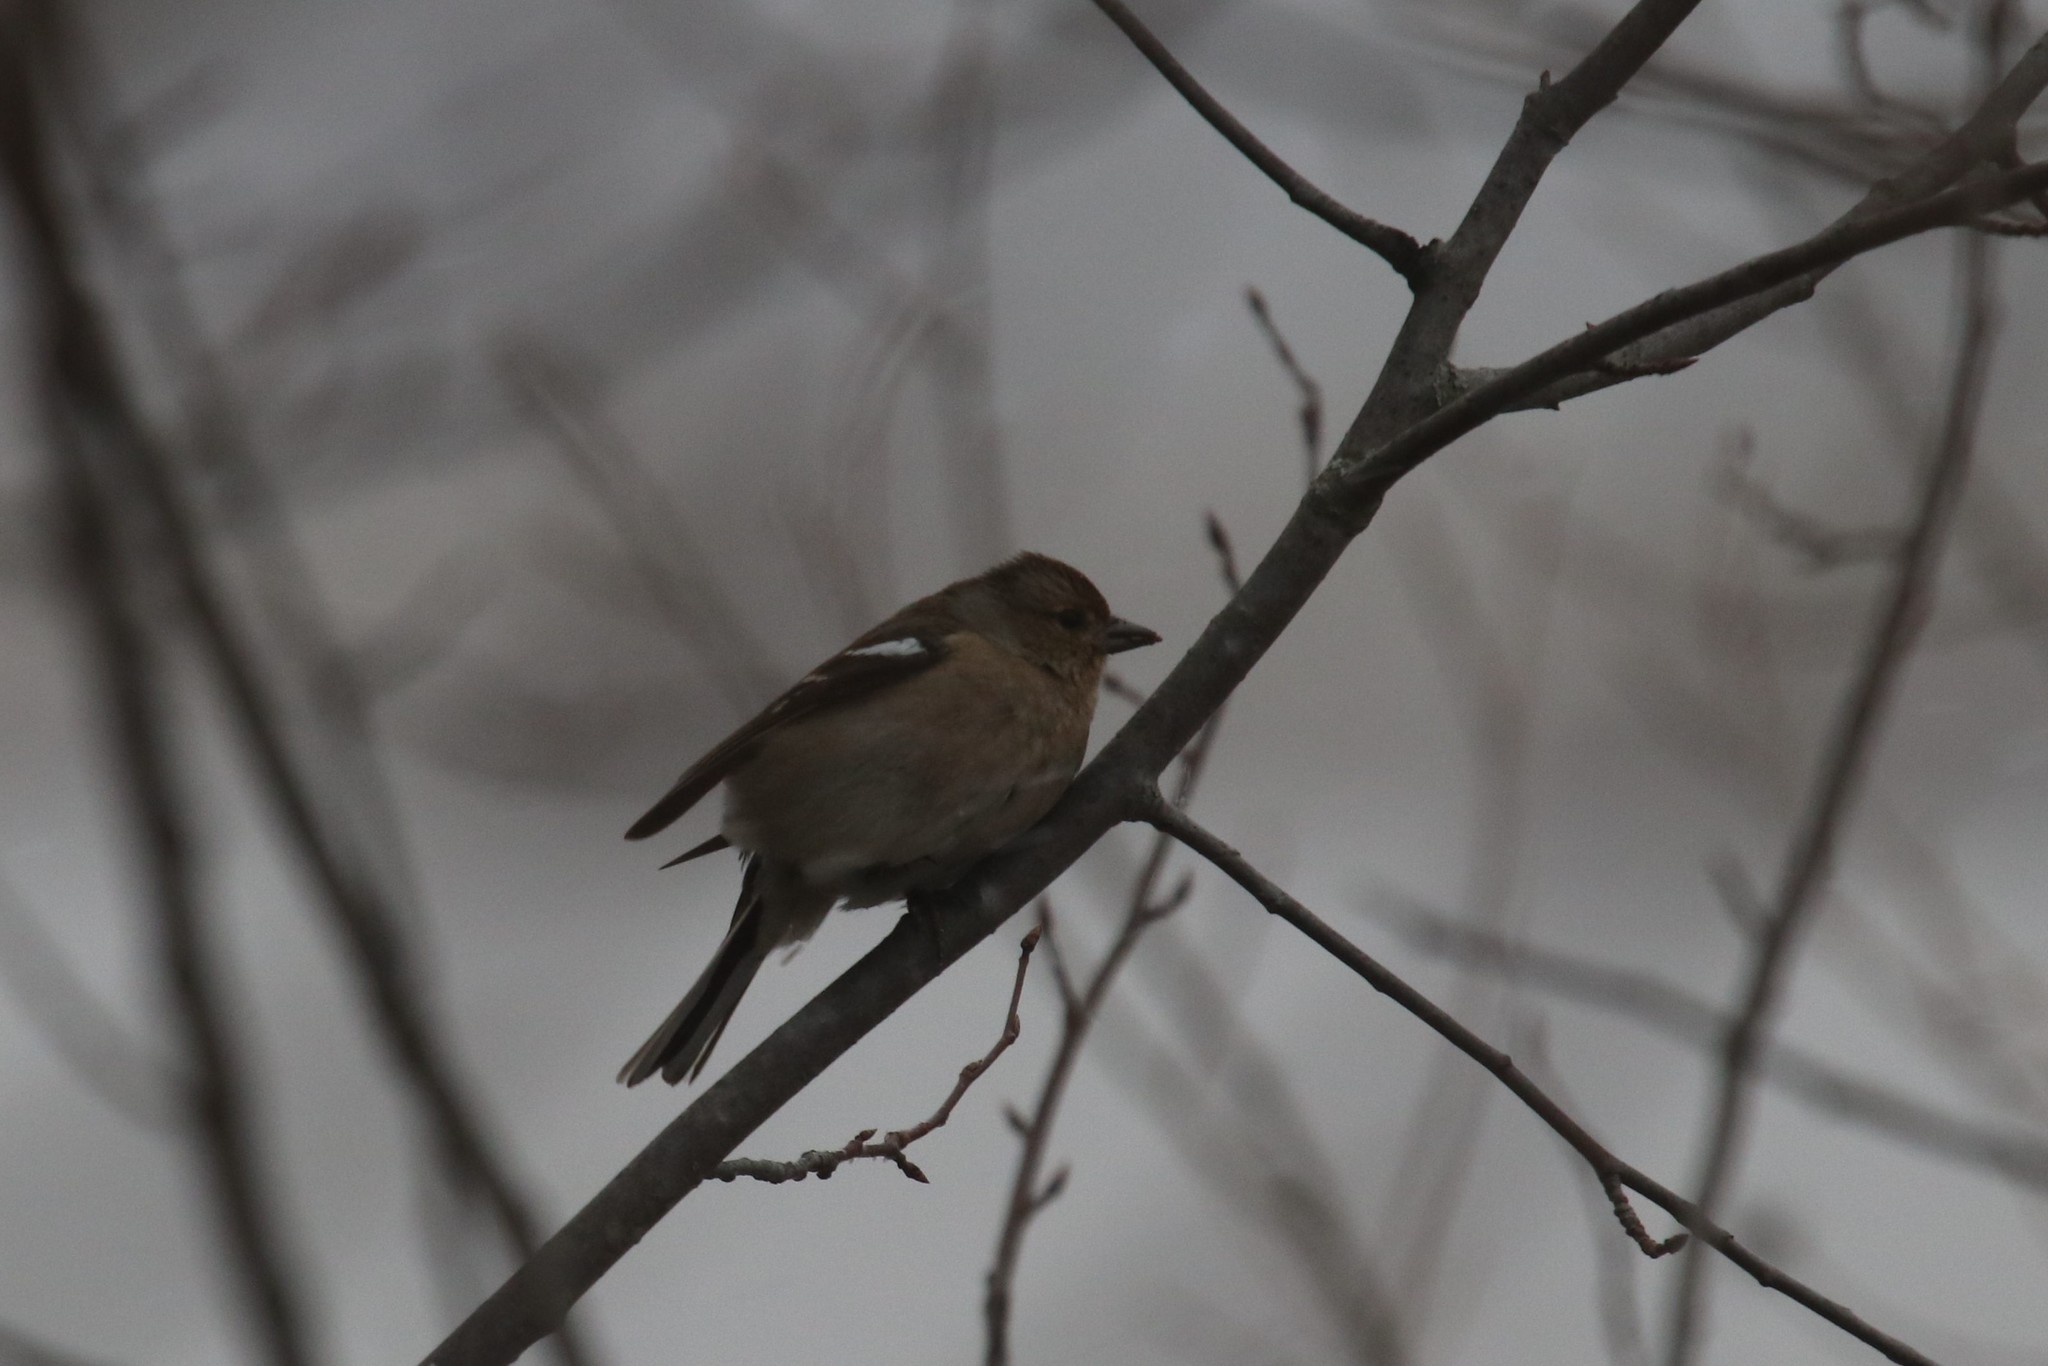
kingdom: Animalia
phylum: Chordata
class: Aves
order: Passeriformes
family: Fringillidae
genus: Fringilla
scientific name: Fringilla coelebs
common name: Common chaffinch
